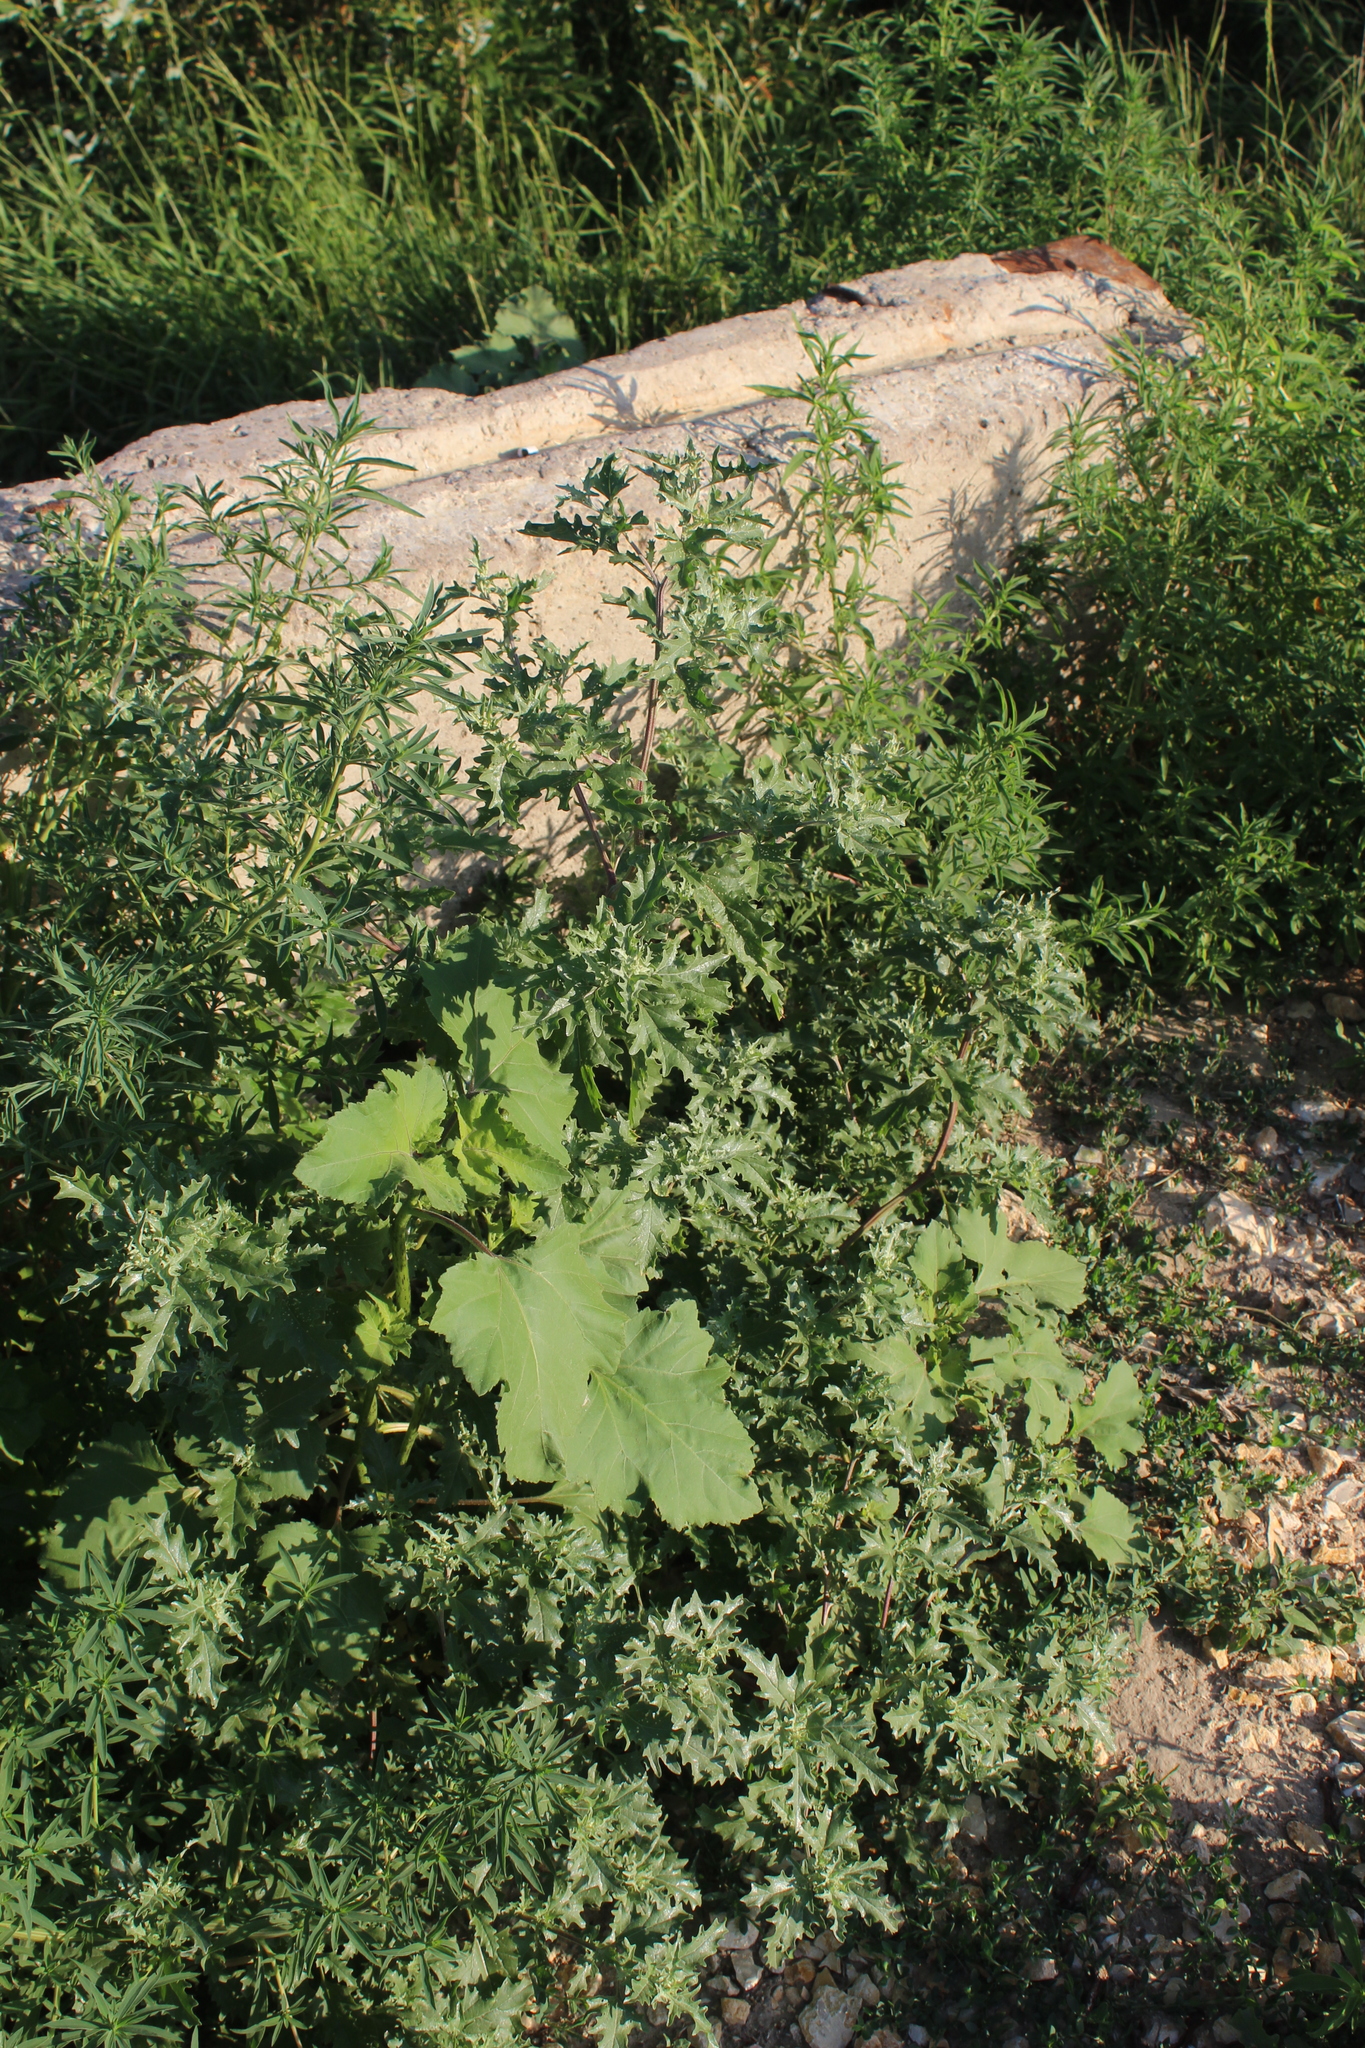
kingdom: Plantae
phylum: Tracheophyta
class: Magnoliopsida
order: Caryophyllales
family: Amaranthaceae
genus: Atriplex
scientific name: Atriplex tatarica
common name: Tatarian orache
